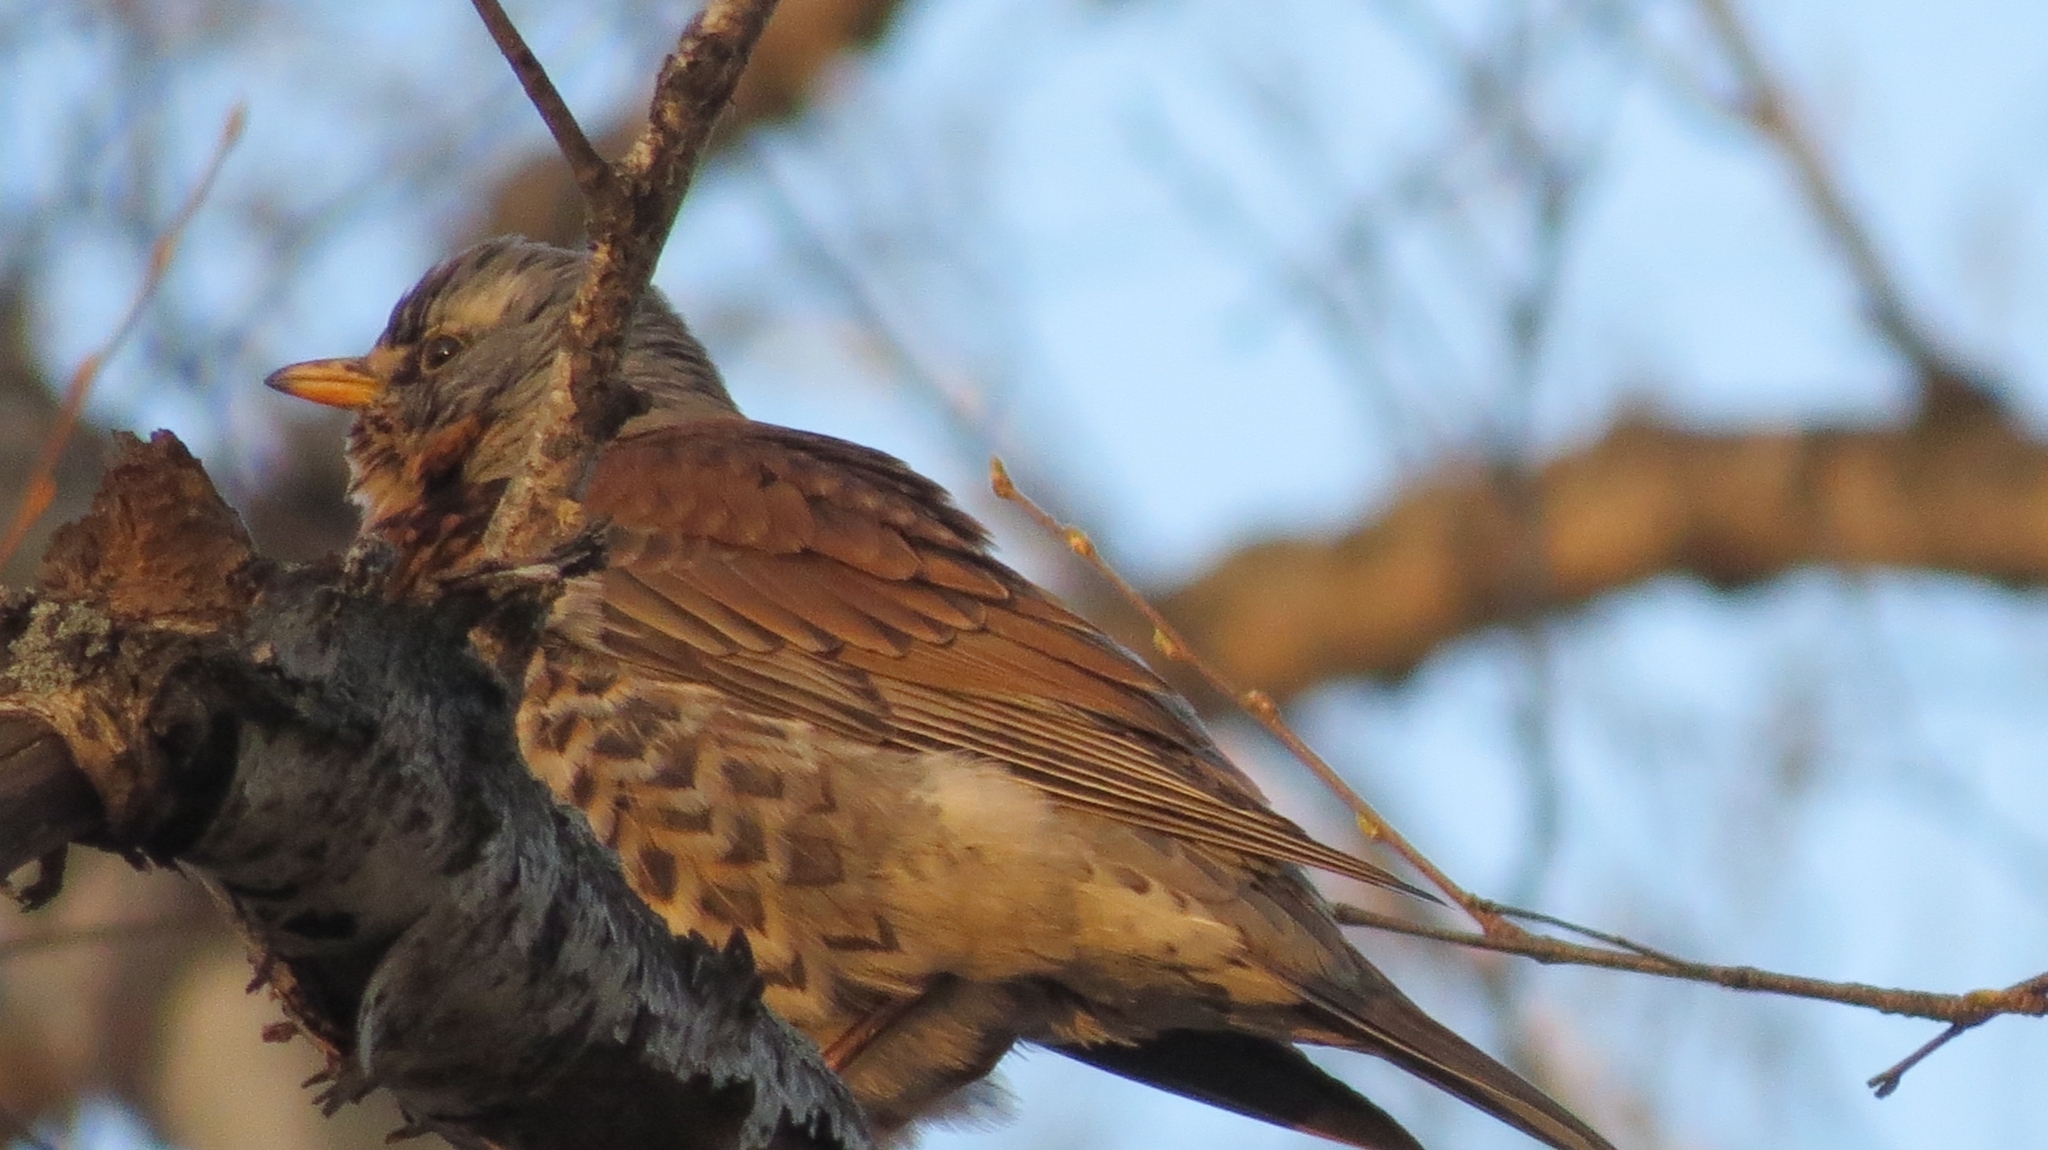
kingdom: Animalia
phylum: Chordata
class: Aves
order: Passeriformes
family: Turdidae
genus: Turdus
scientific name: Turdus pilaris
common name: Fieldfare
